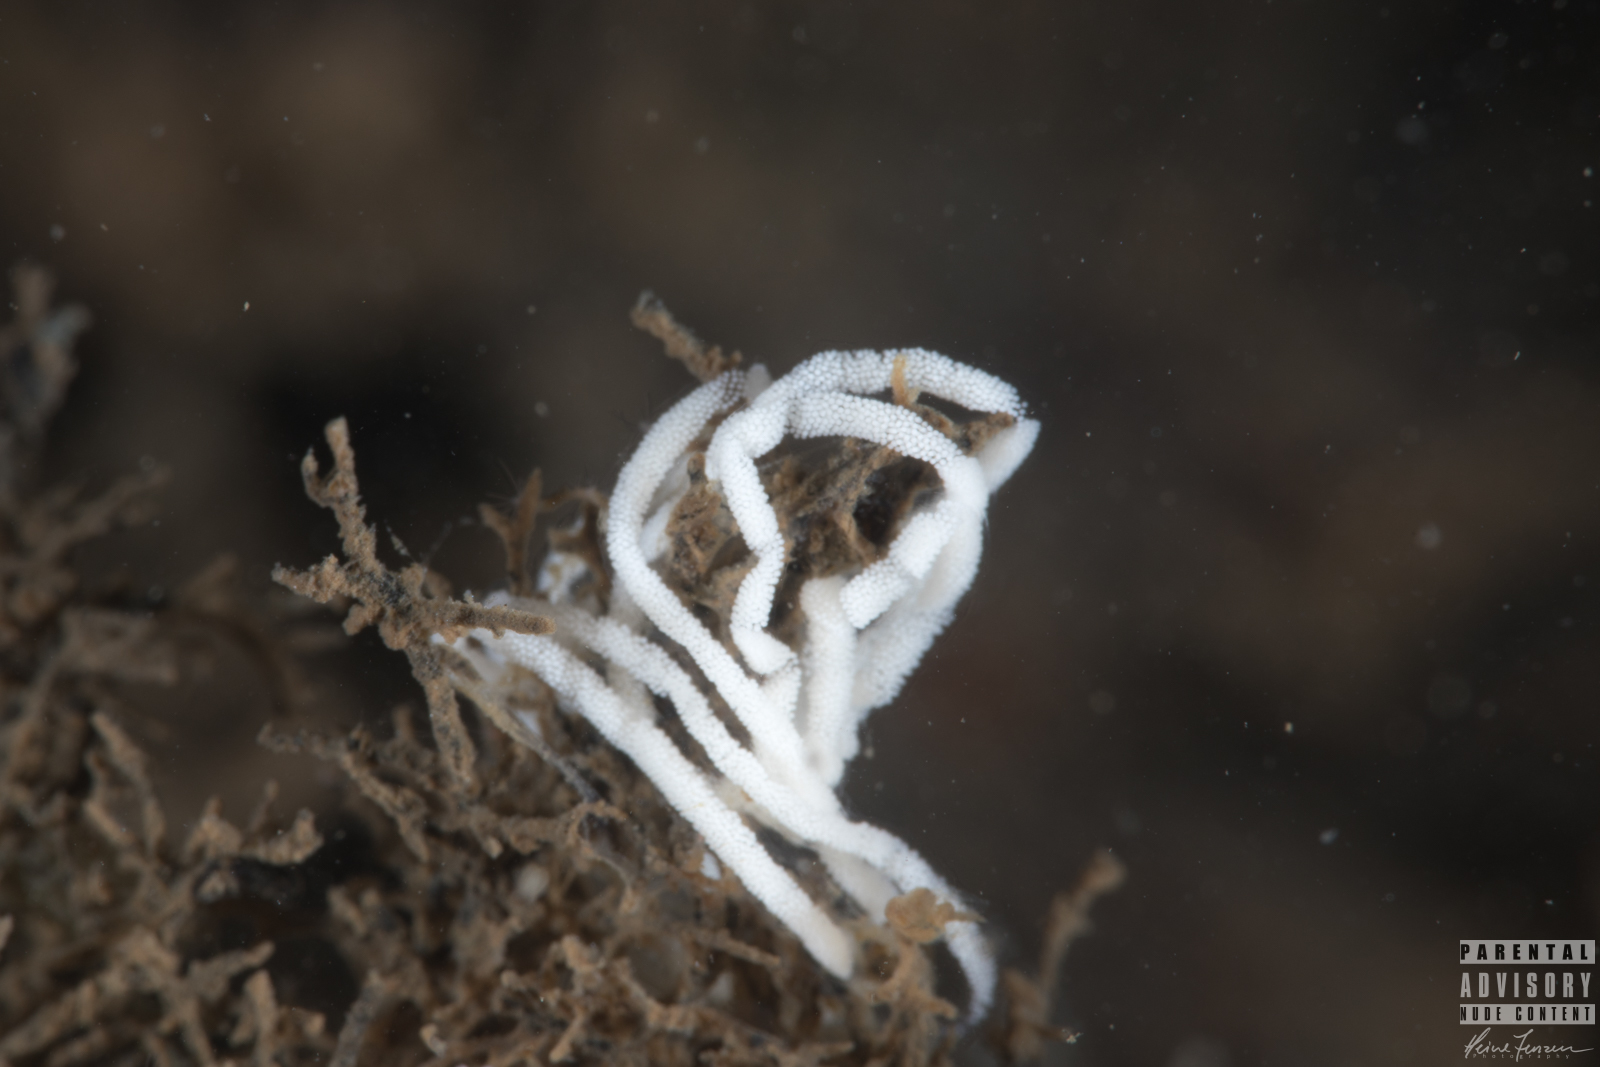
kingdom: Animalia
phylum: Mollusca
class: Gastropoda
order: Nudibranchia
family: Heroidae
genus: Hero
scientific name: Hero formosa
